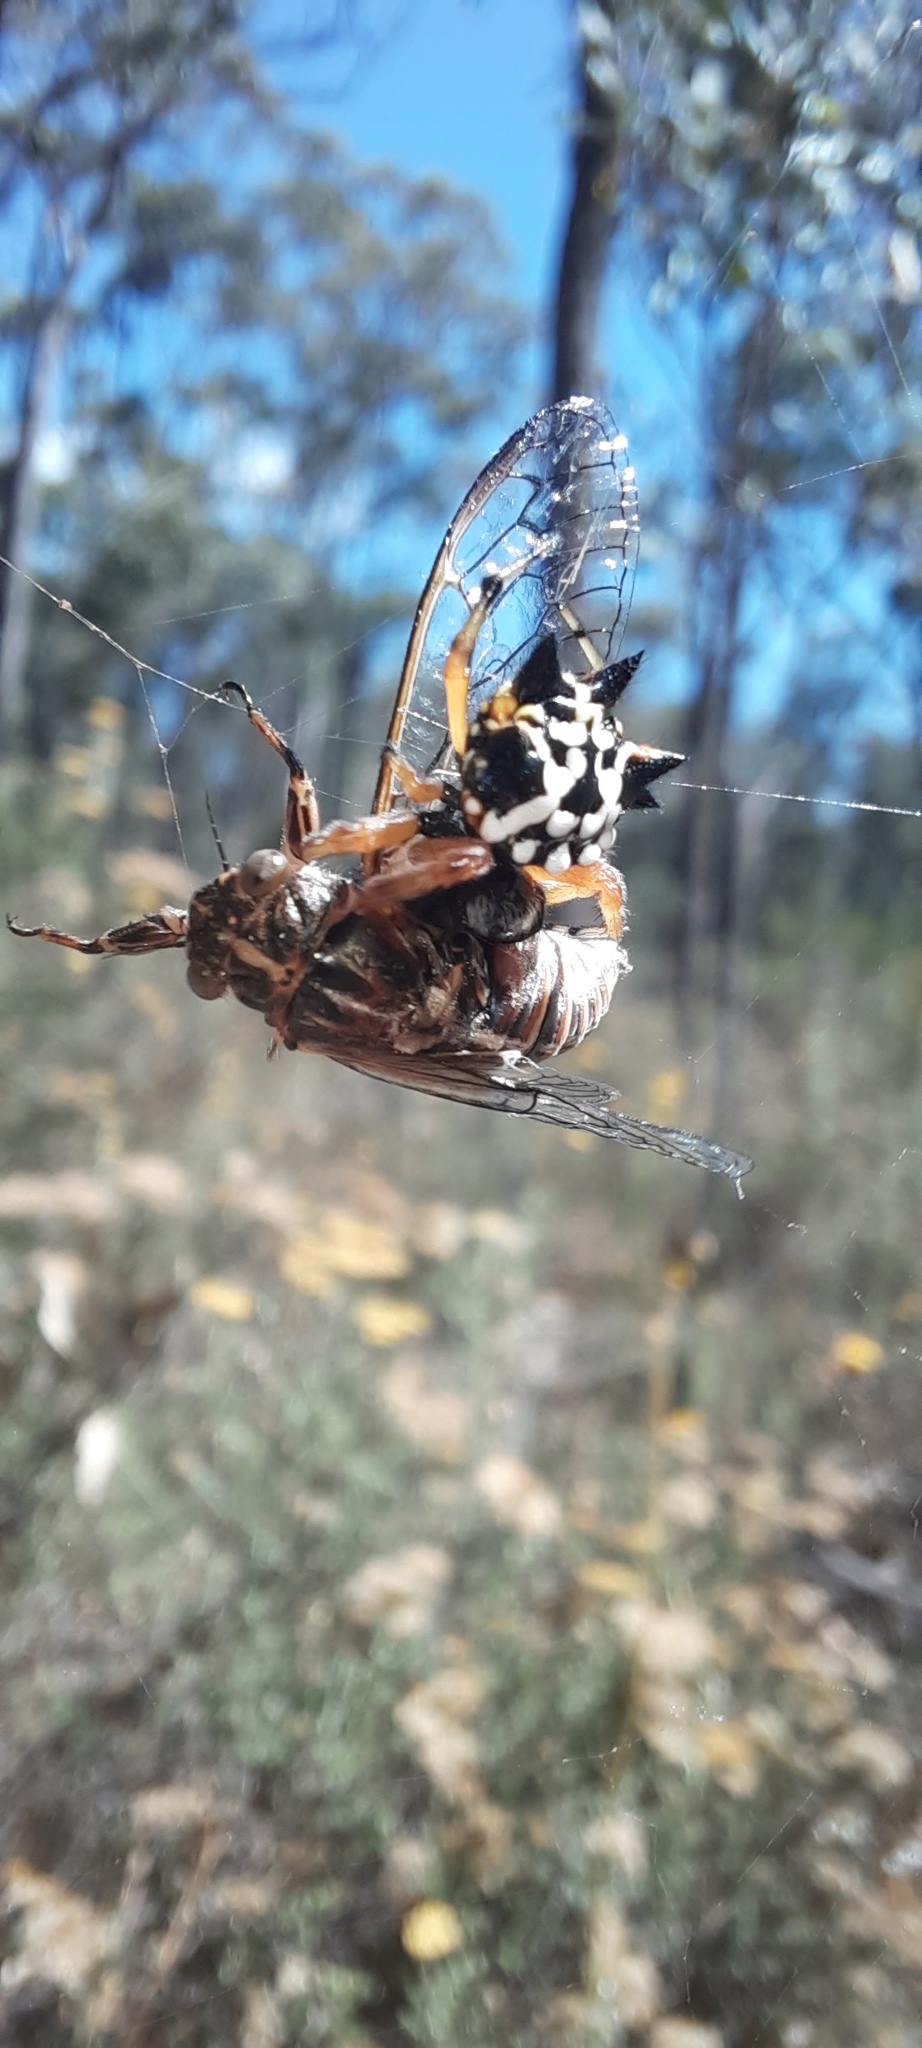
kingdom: Animalia
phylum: Arthropoda
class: Arachnida
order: Araneae
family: Araneidae
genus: Austracantha
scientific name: Austracantha minax
